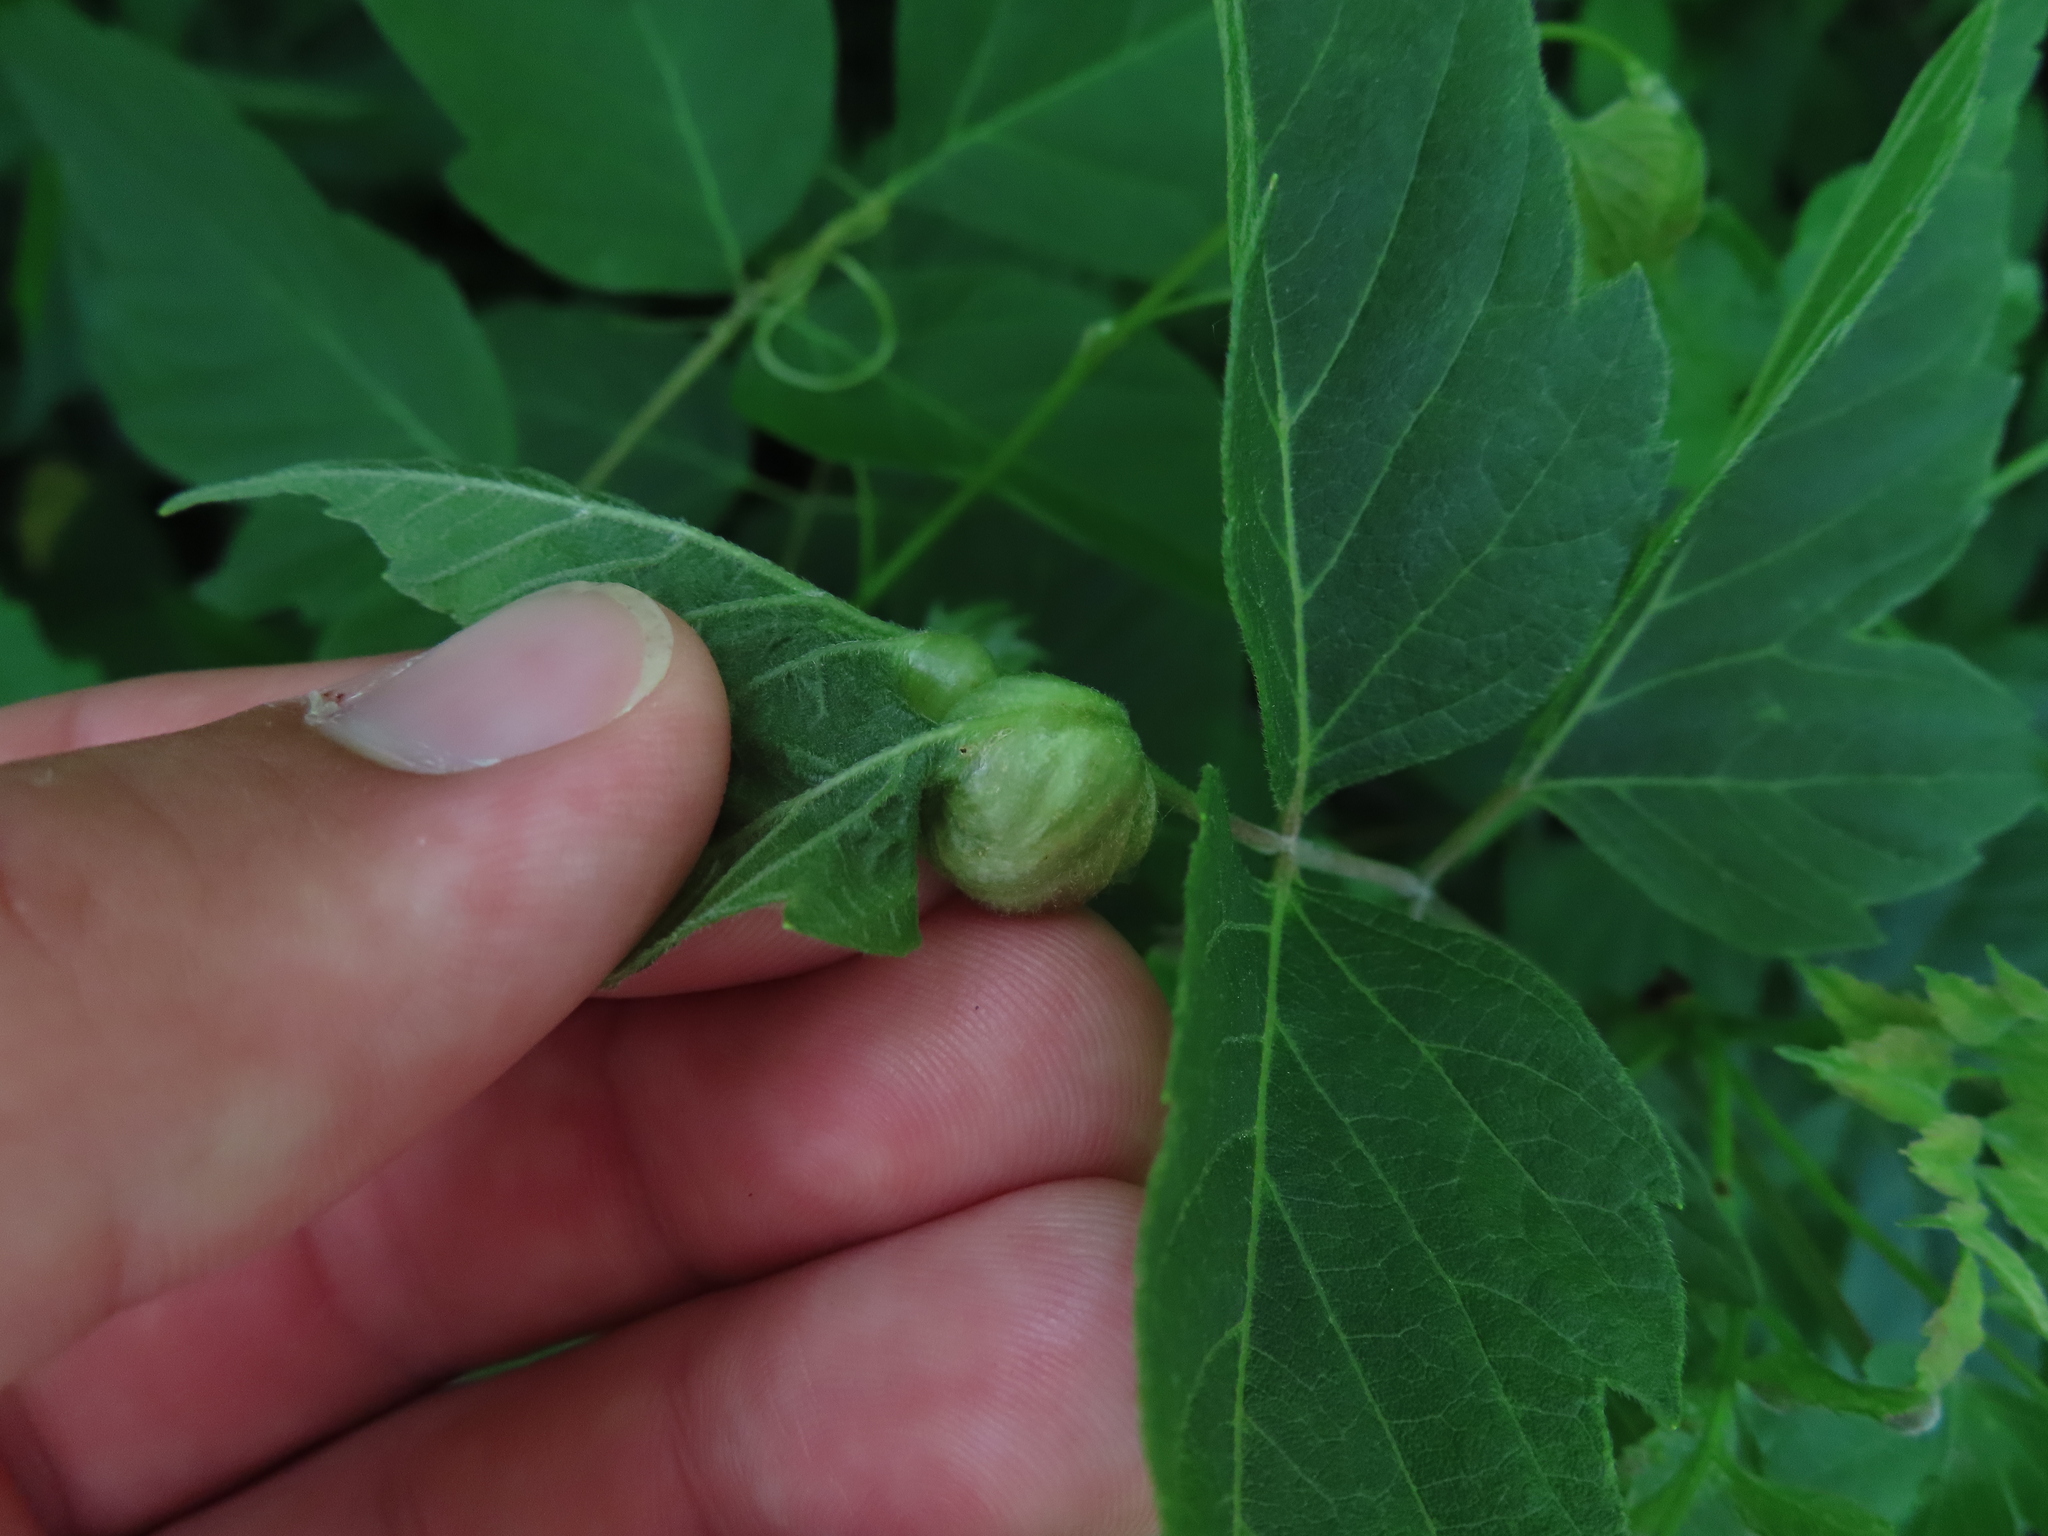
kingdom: Animalia
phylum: Arthropoda
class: Insecta
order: Diptera
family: Cecidomyiidae
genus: Contarinia
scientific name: Contarinia negundinis
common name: Boxelder budgall midge
